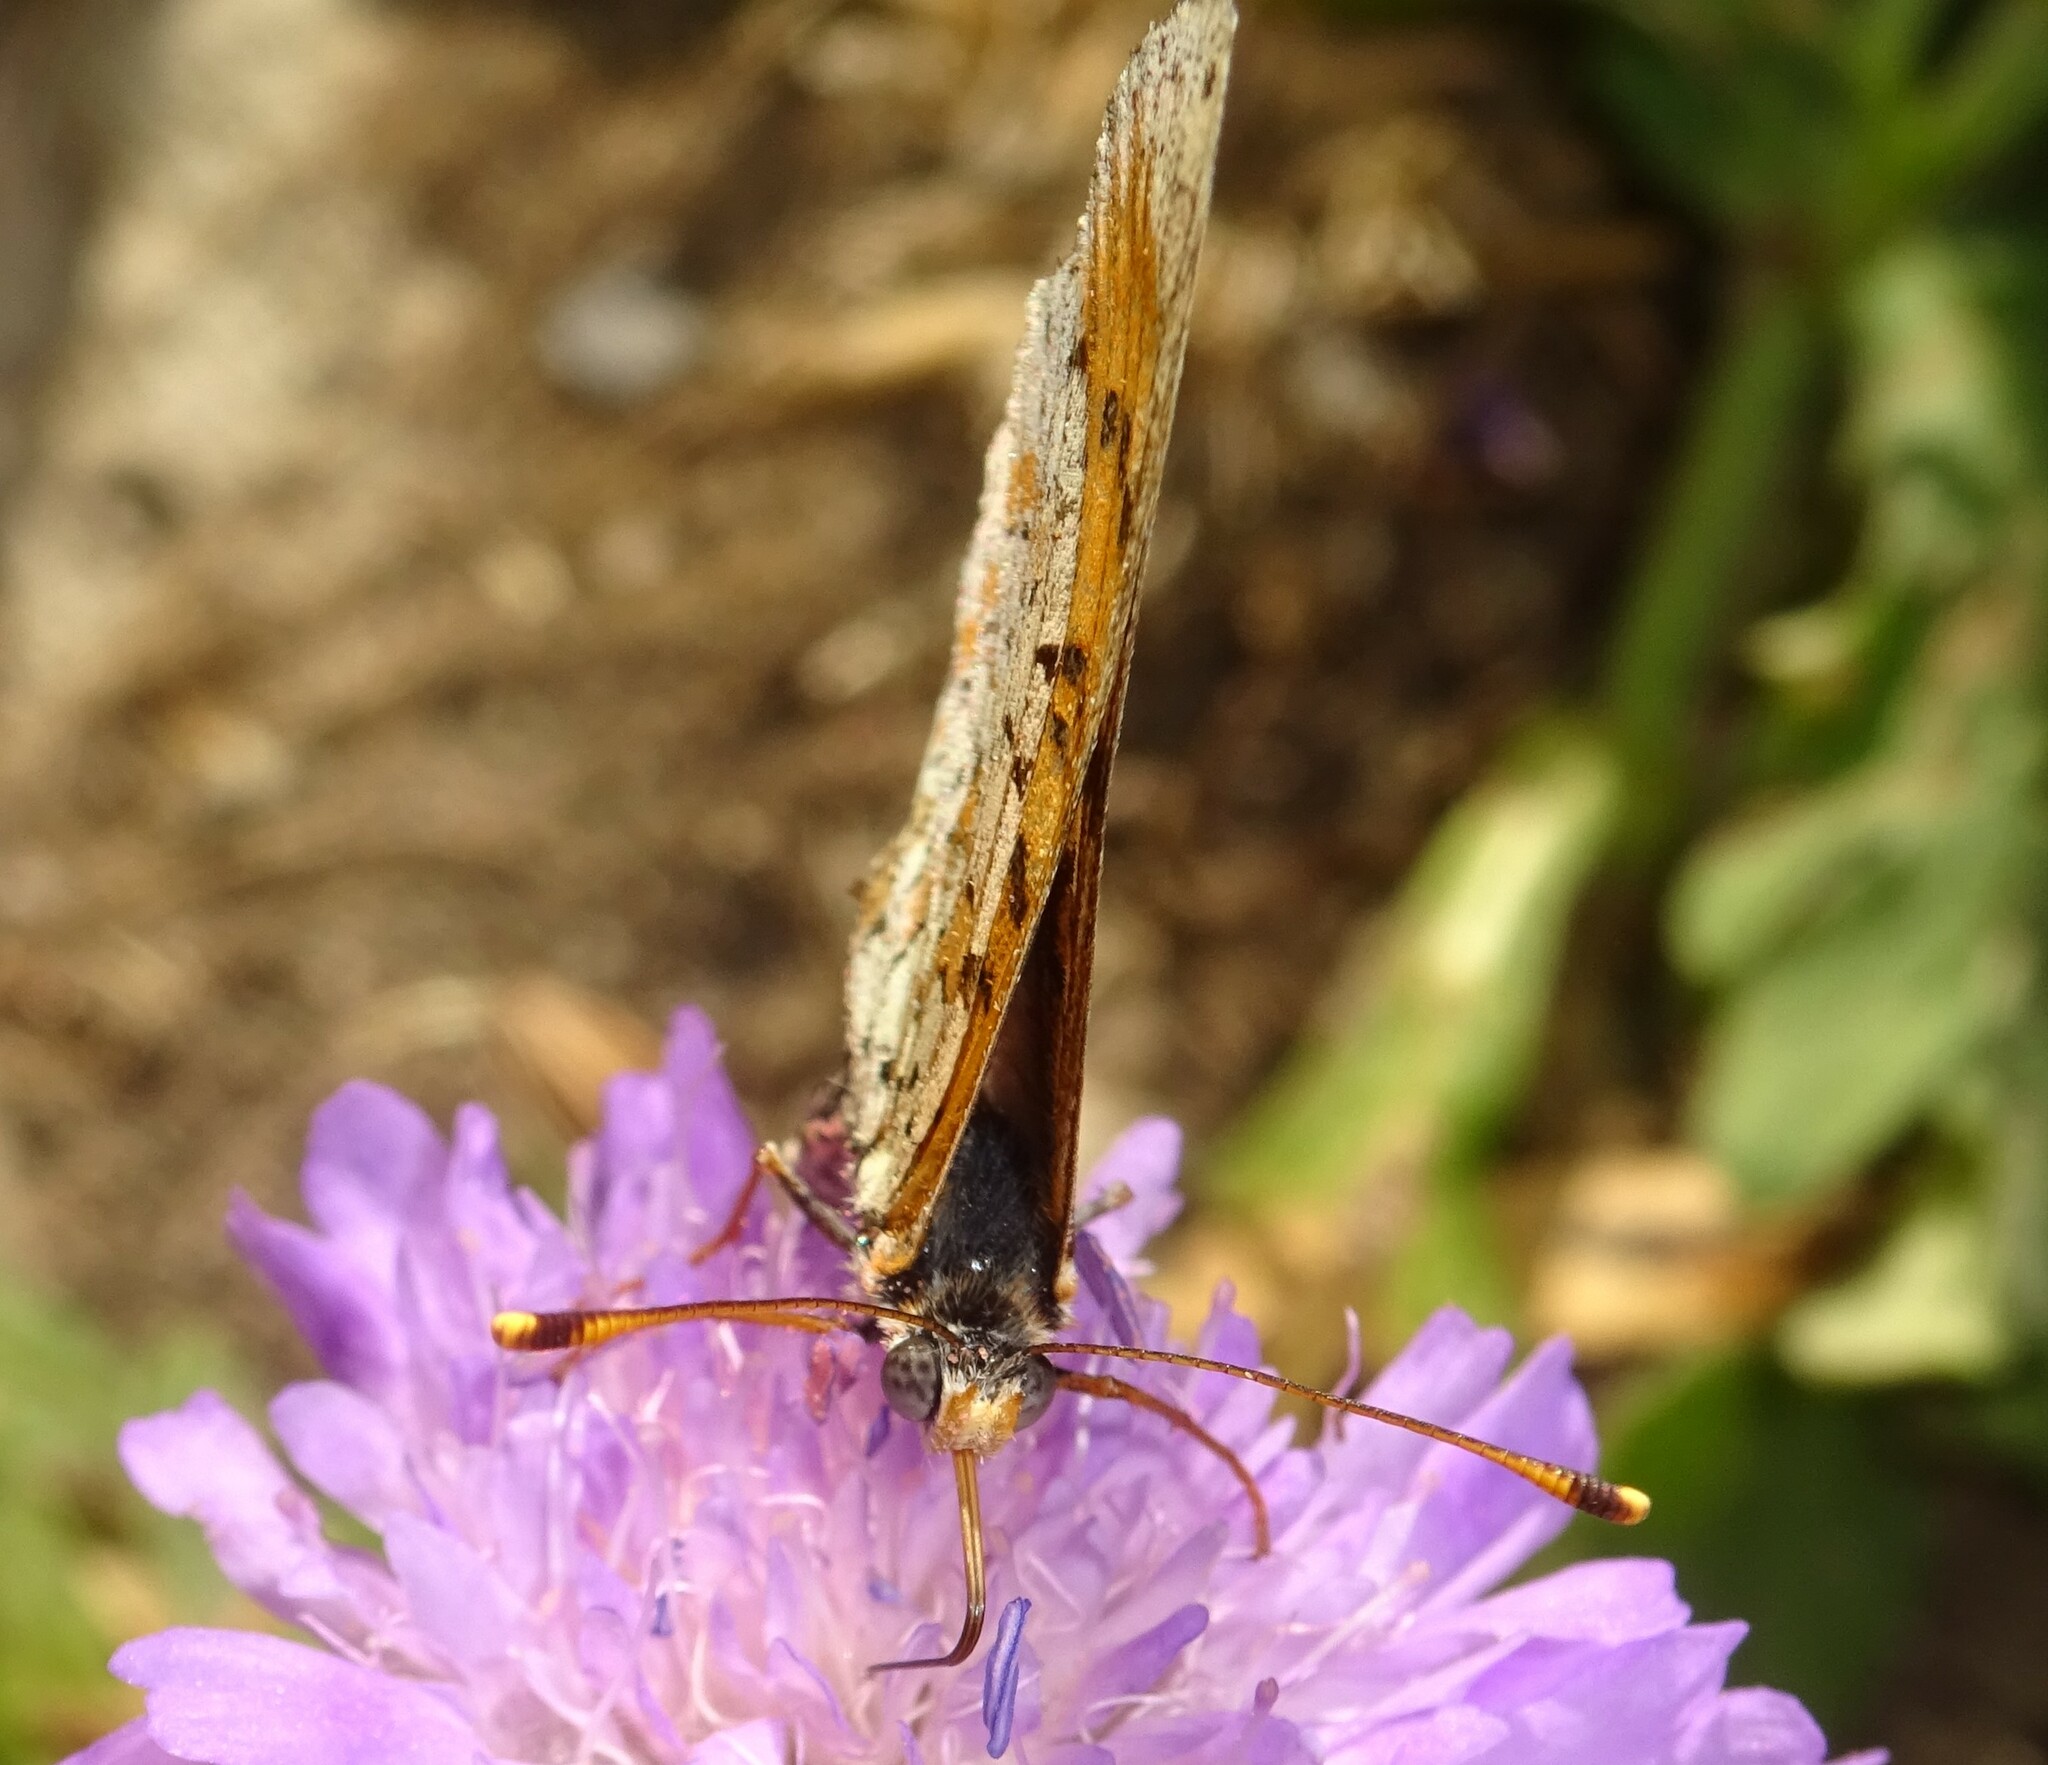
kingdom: Animalia
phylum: Arthropoda
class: Insecta
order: Lepidoptera
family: Nymphalidae
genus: Melitaea
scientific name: Melitaea didyma
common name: Spotted fritillary
